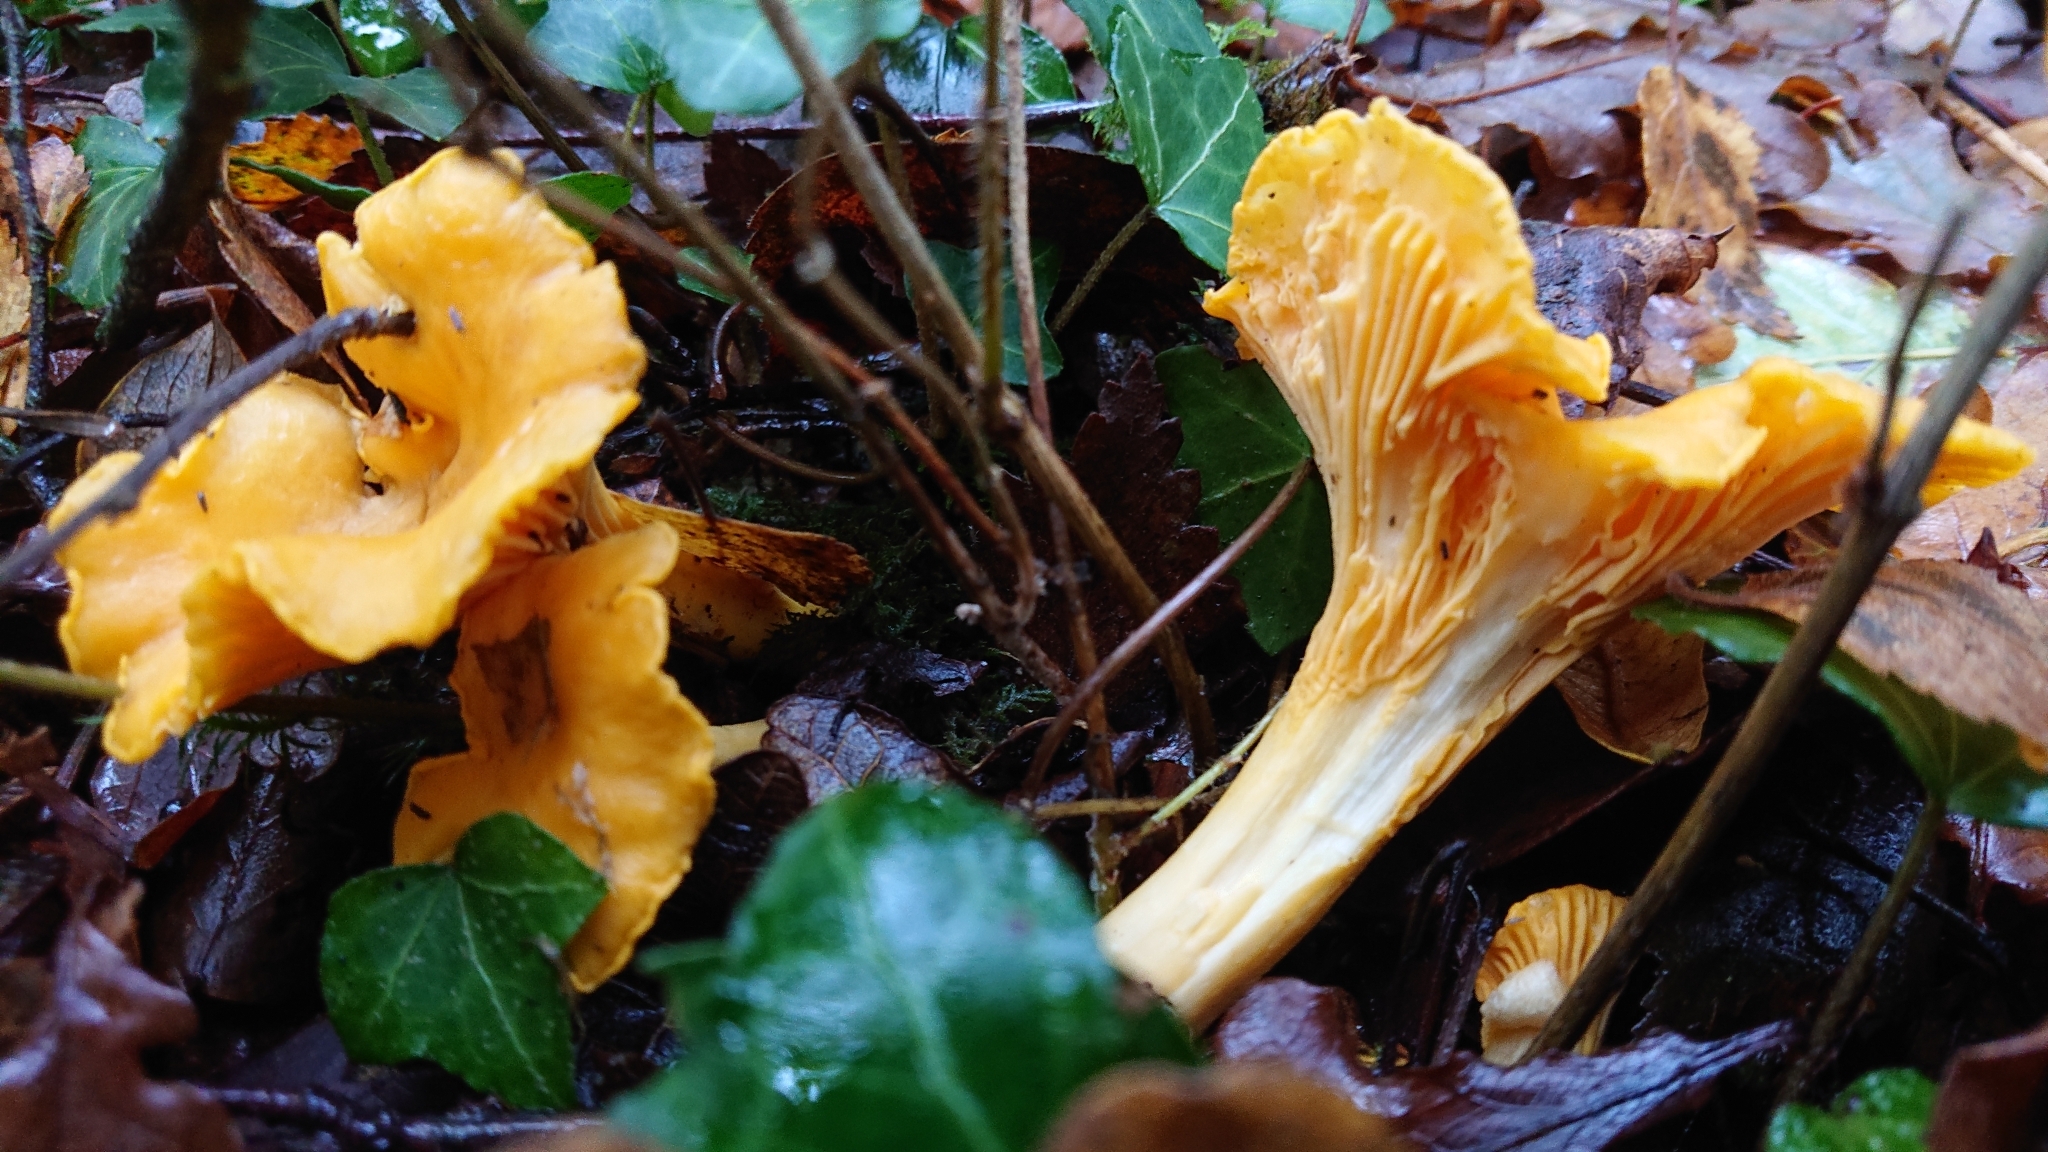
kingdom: Fungi
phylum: Basidiomycota
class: Agaricomycetes
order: Cantharellales
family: Hydnaceae
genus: Cantharellus
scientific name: Cantharellus cibarius
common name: Chanterelle
